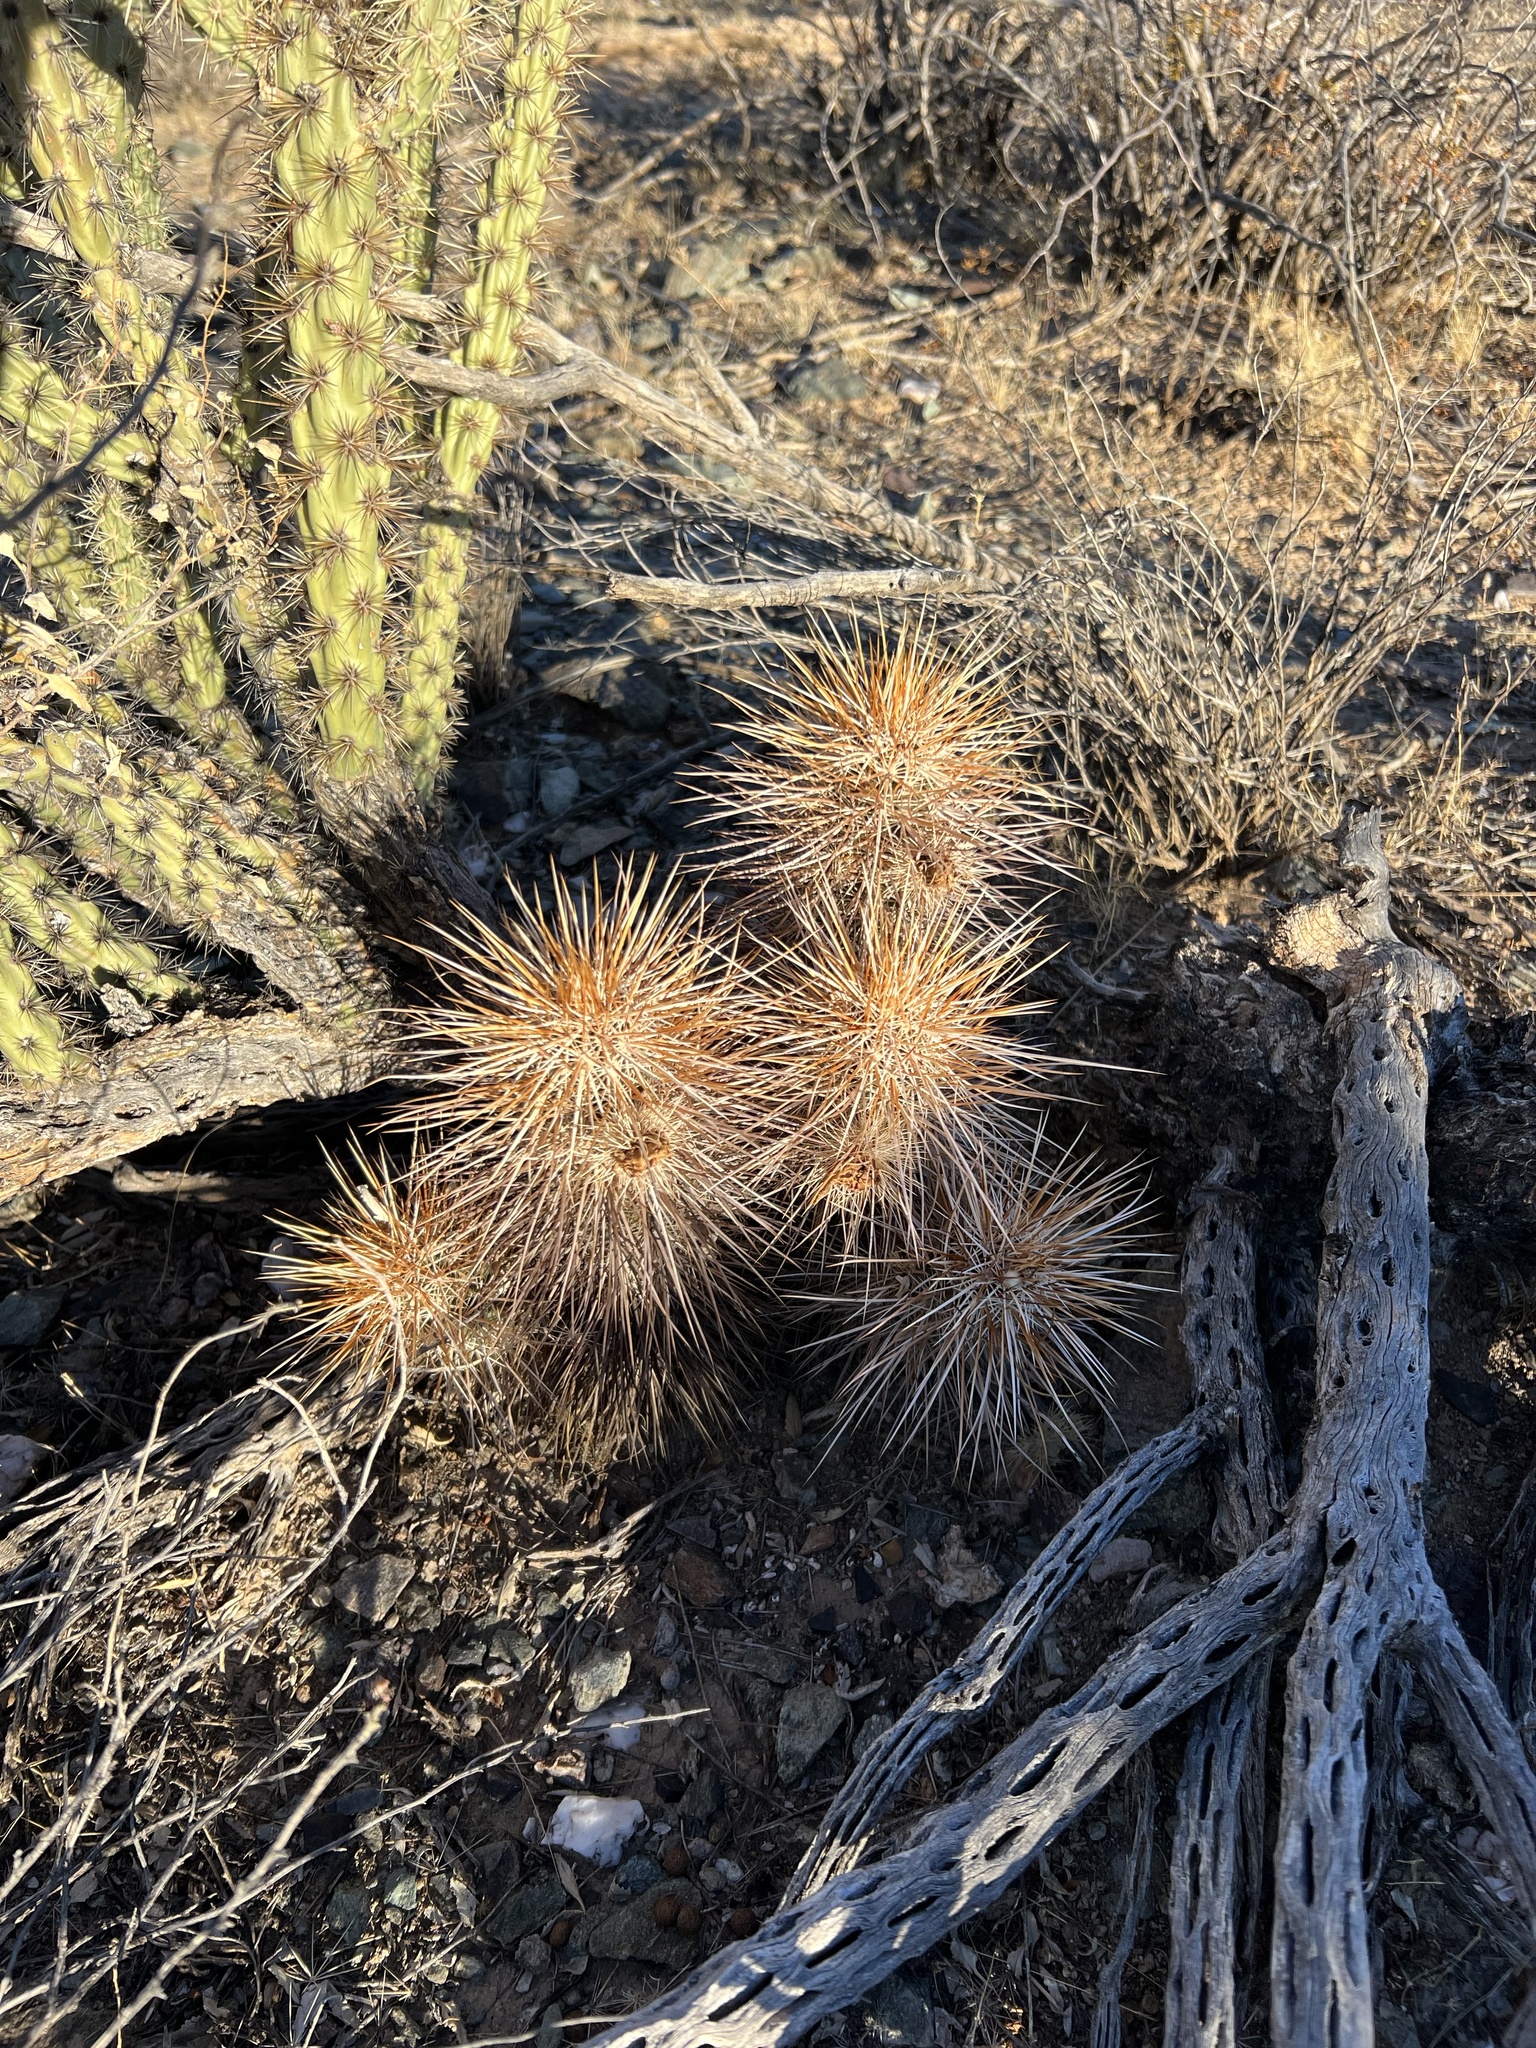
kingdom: Plantae
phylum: Tracheophyta
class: Magnoliopsida
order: Caryophyllales
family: Cactaceae
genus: Echinocereus
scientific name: Echinocereus engelmannii
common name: Engelmann's hedgehog cactus
